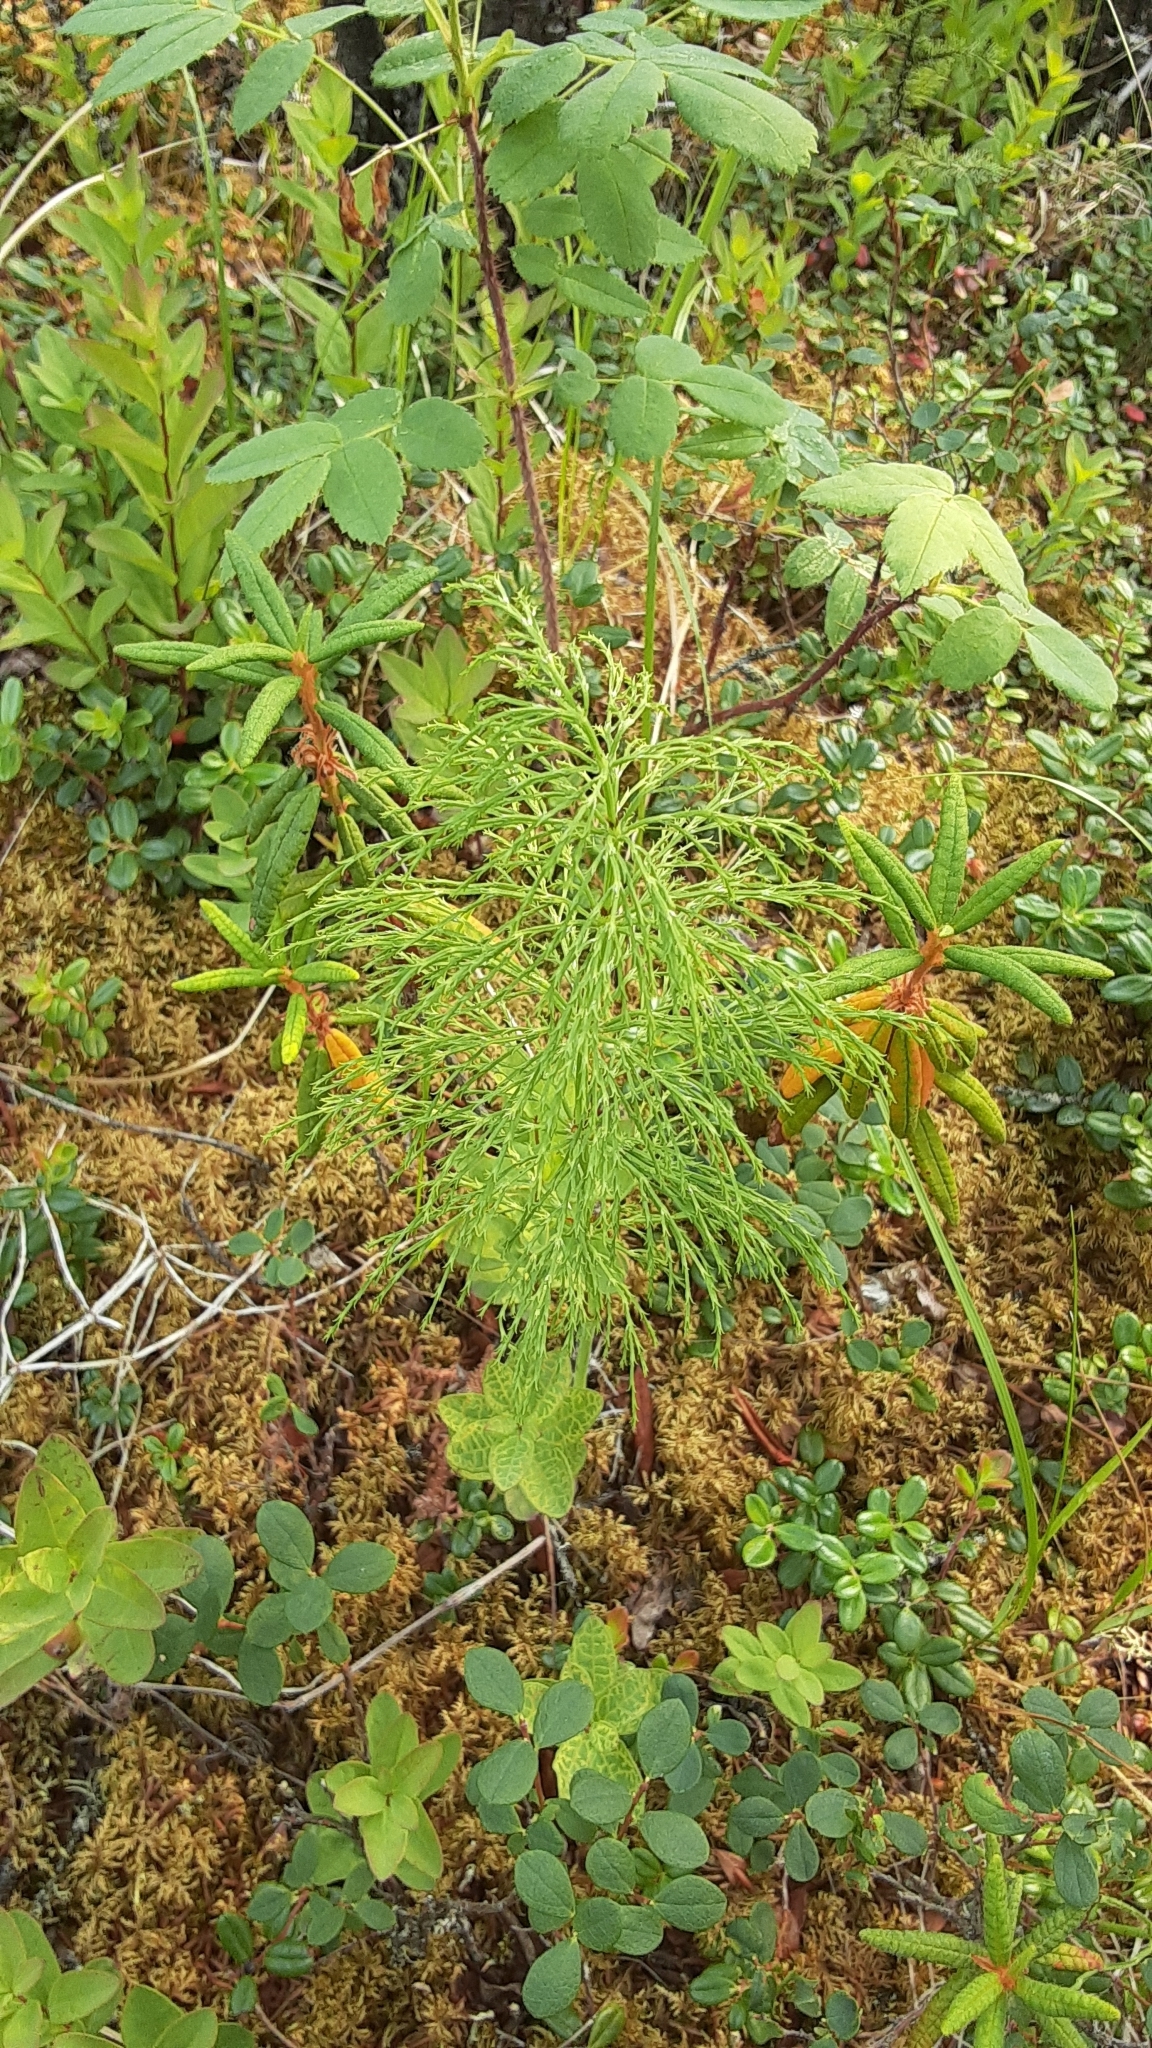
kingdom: Plantae
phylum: Tracheophyta
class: Polypodiopsida
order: Equisetales
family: Equisetaceae
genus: Equisetum
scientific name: Equisetum sylvaticum
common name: Wood horsetail
